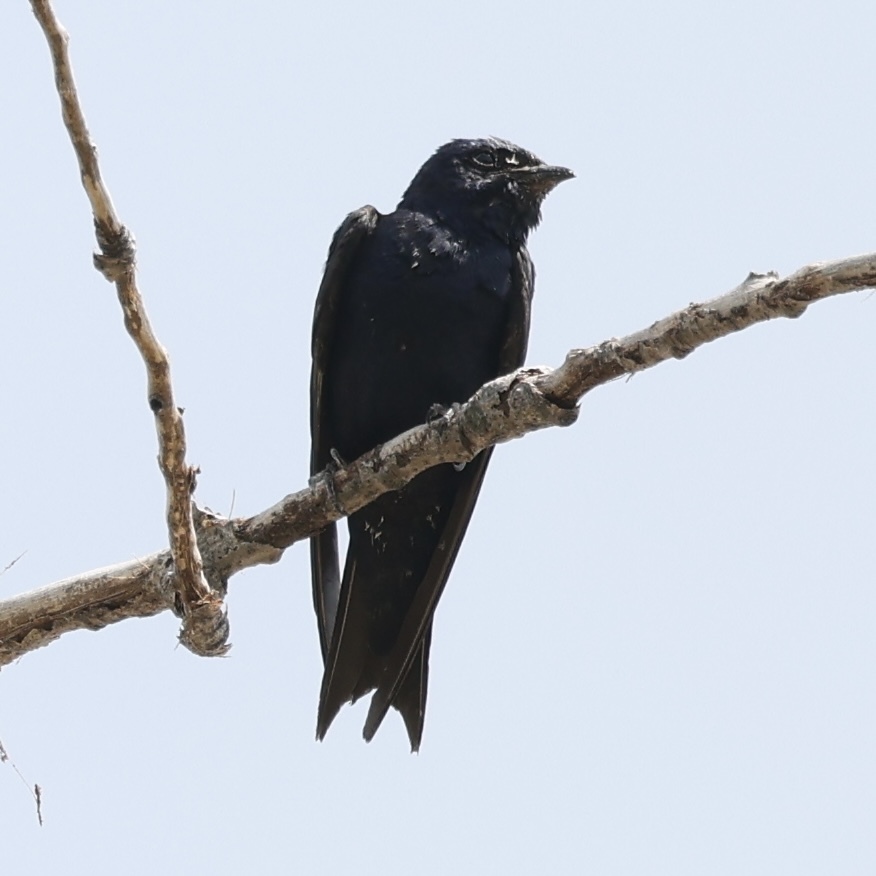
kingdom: Animalia
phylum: Chordata
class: Aves
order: Passeriformes
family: Hirundinidae
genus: Progne
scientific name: Progne subis
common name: Purple martin
